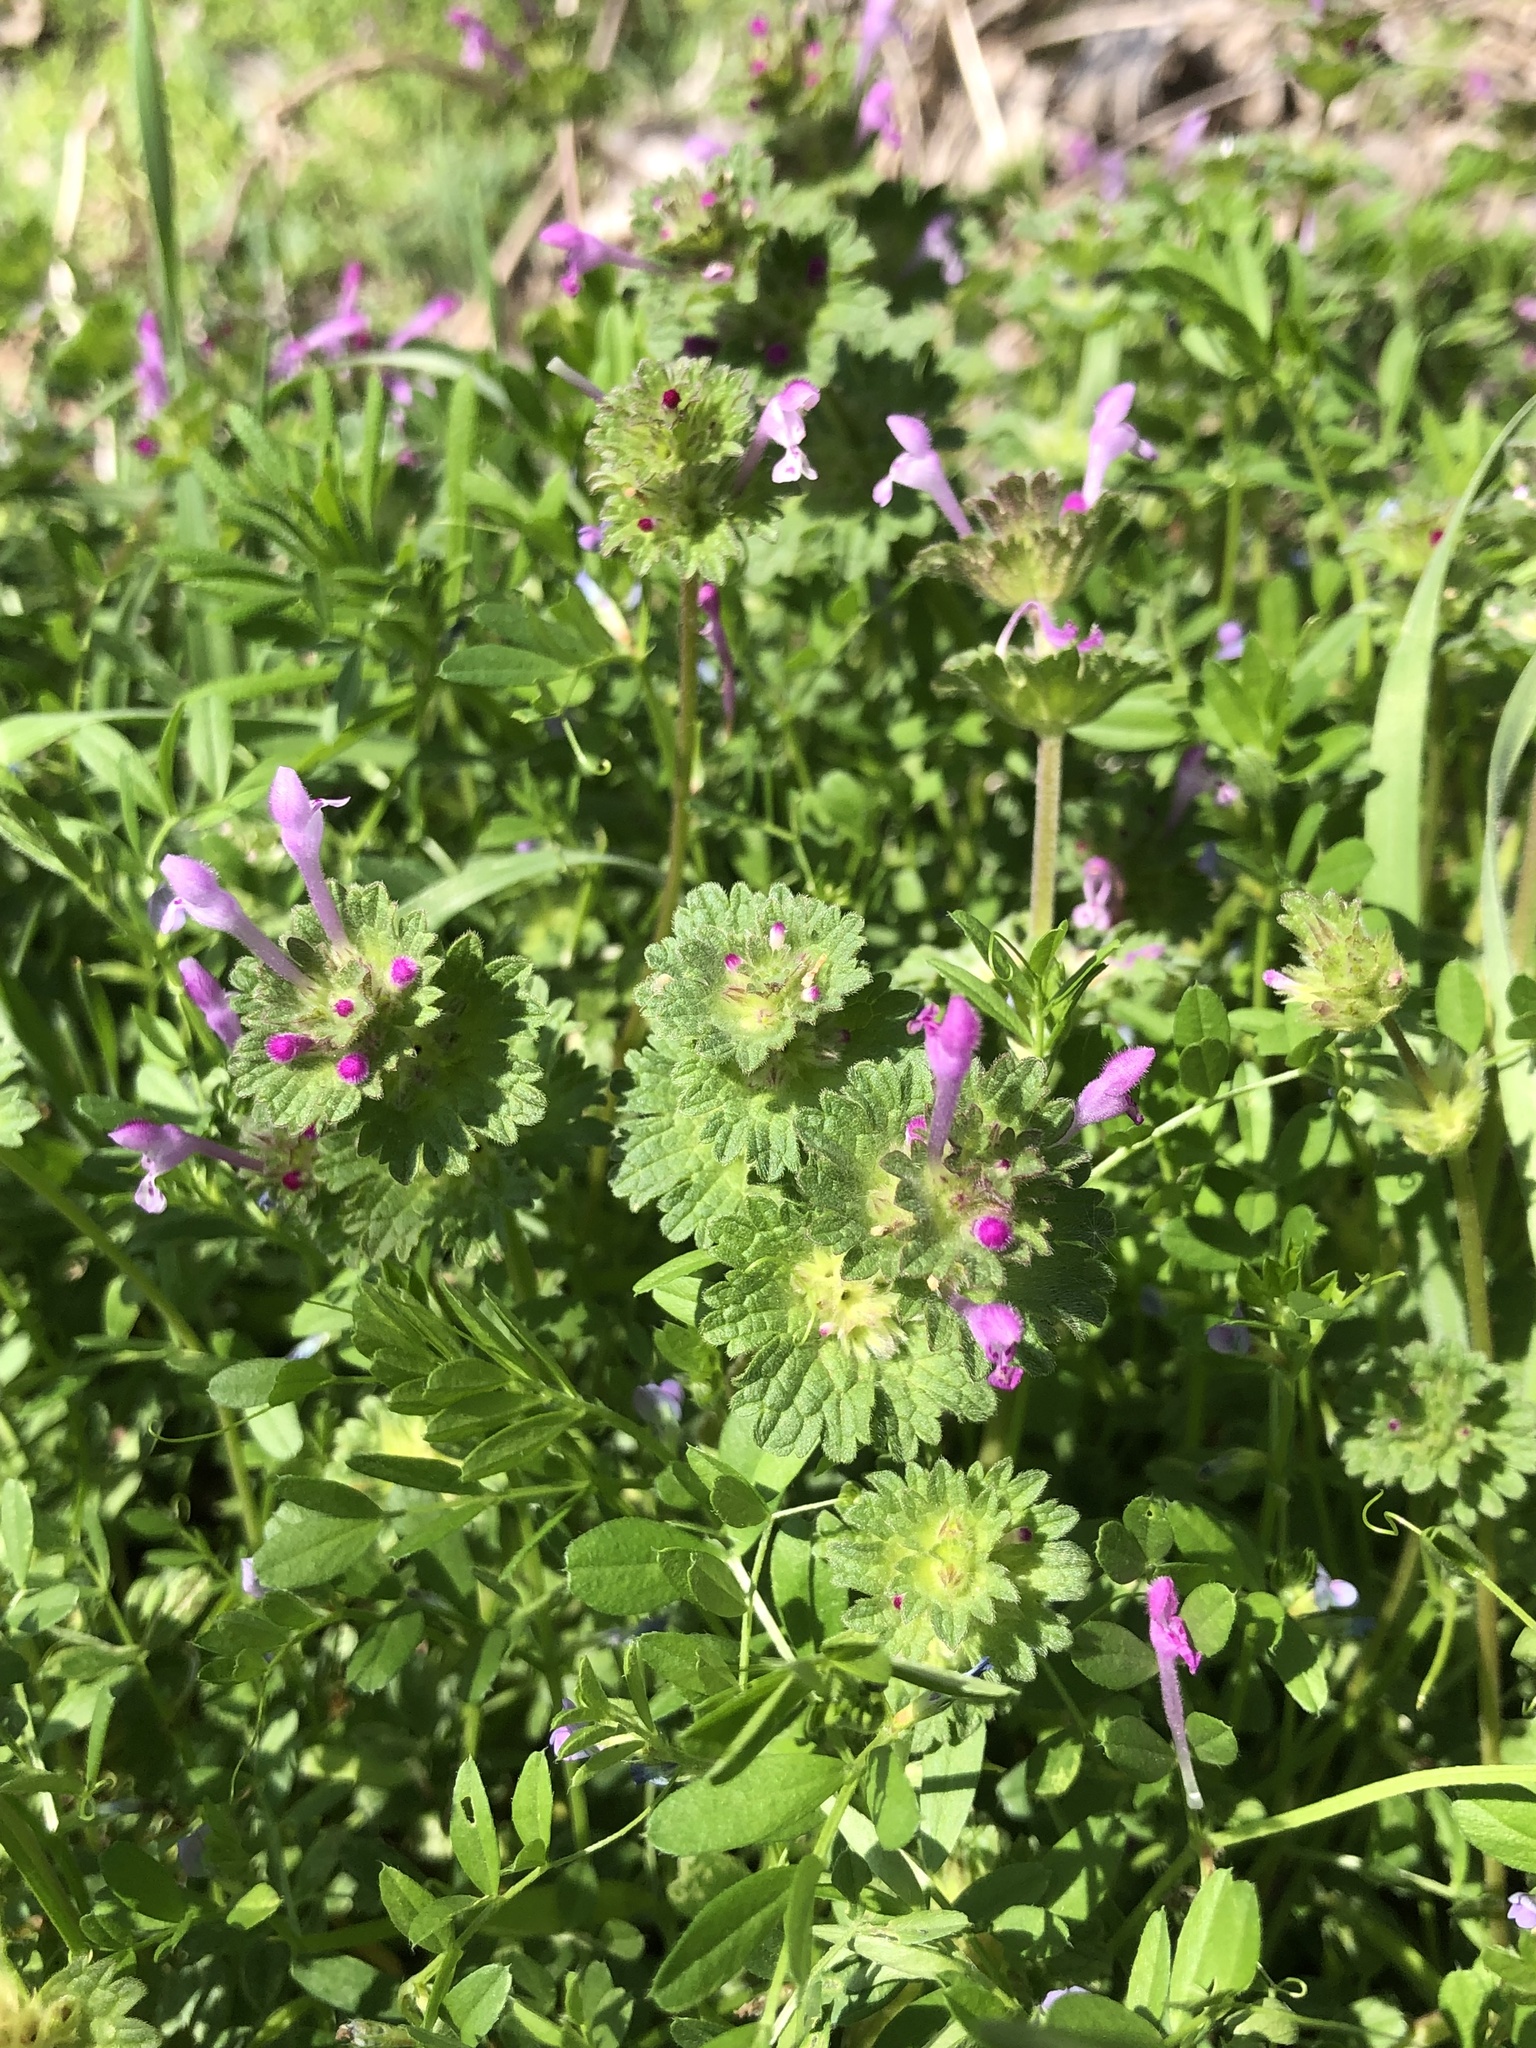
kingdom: Plantae
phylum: Tracheophyta
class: Magnoliopsida
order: Lamiales
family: Lamiaceae
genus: Lamium
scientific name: Lamium amplexicaule
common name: Henbit dead-nettle
